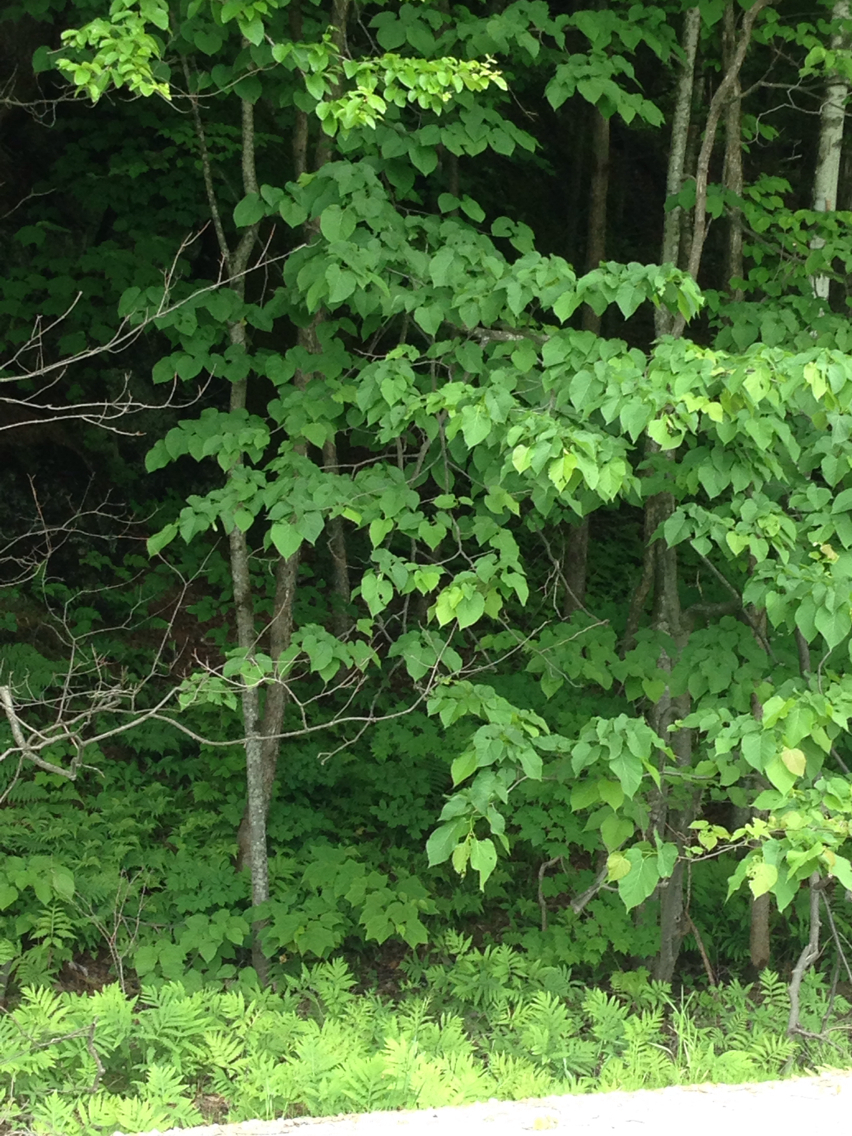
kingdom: Plantae
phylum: Tracheophyta
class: Magnoliopsida
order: Malvales
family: Malvaceae
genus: Tilia
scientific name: Tilia americana
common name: Basswood
